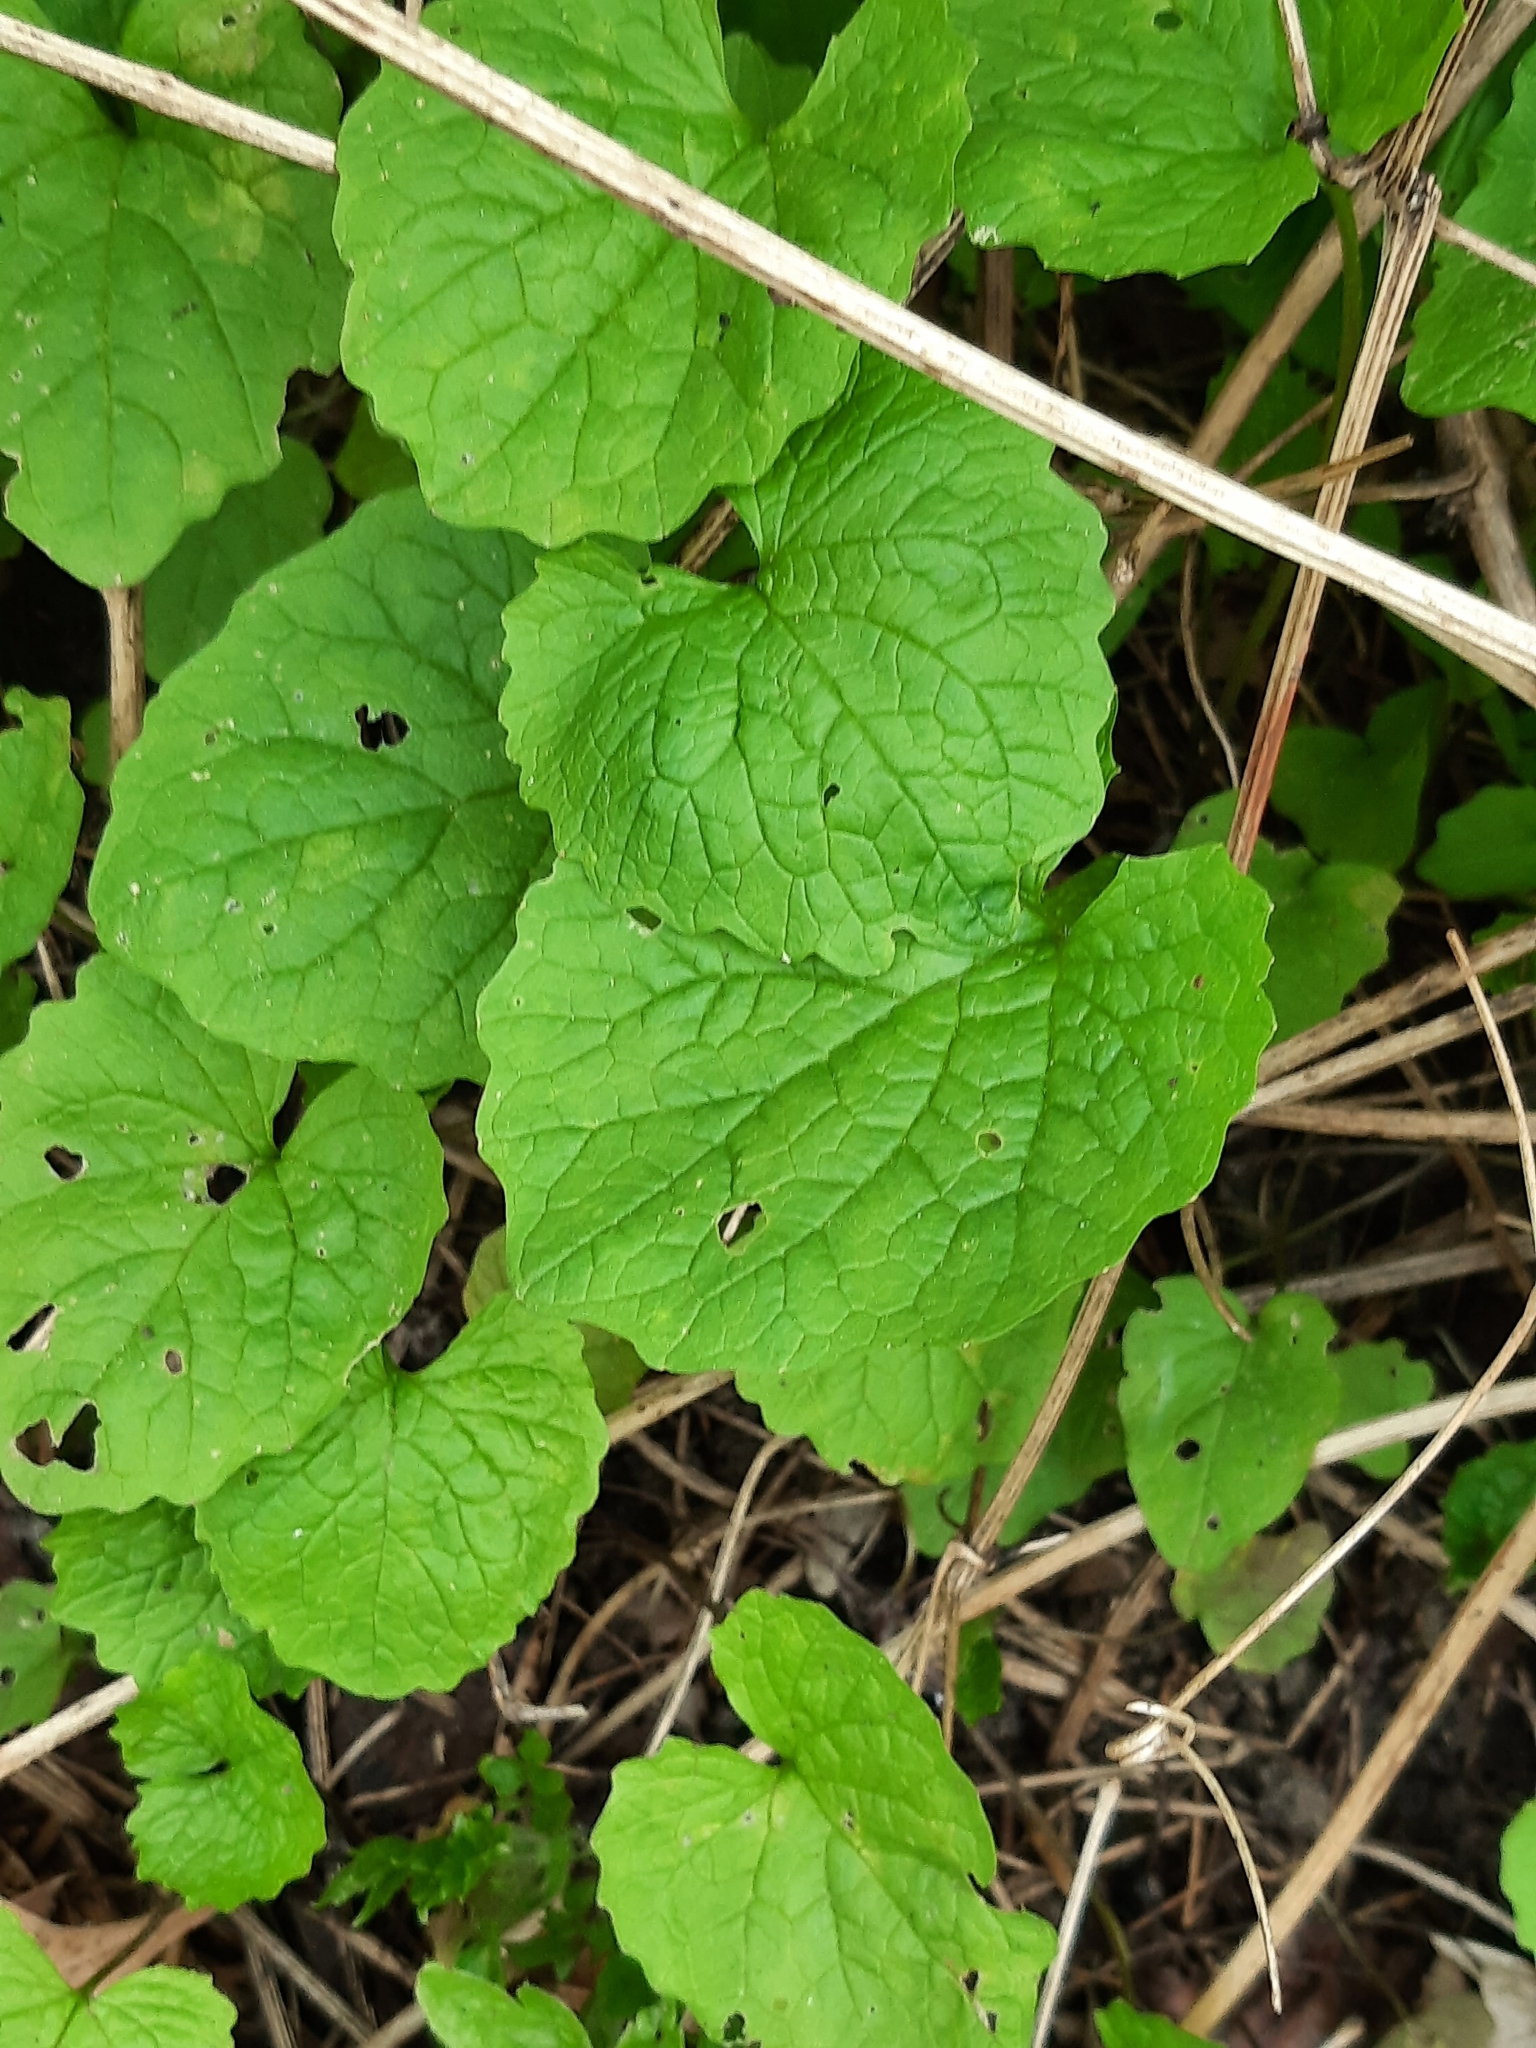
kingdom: Plantae
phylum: Tracheophyta
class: Magnoliopsida
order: Brassicales
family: Brassicaceae
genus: Alliaria
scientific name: Alliaria petiolata
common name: Garlic mustard
